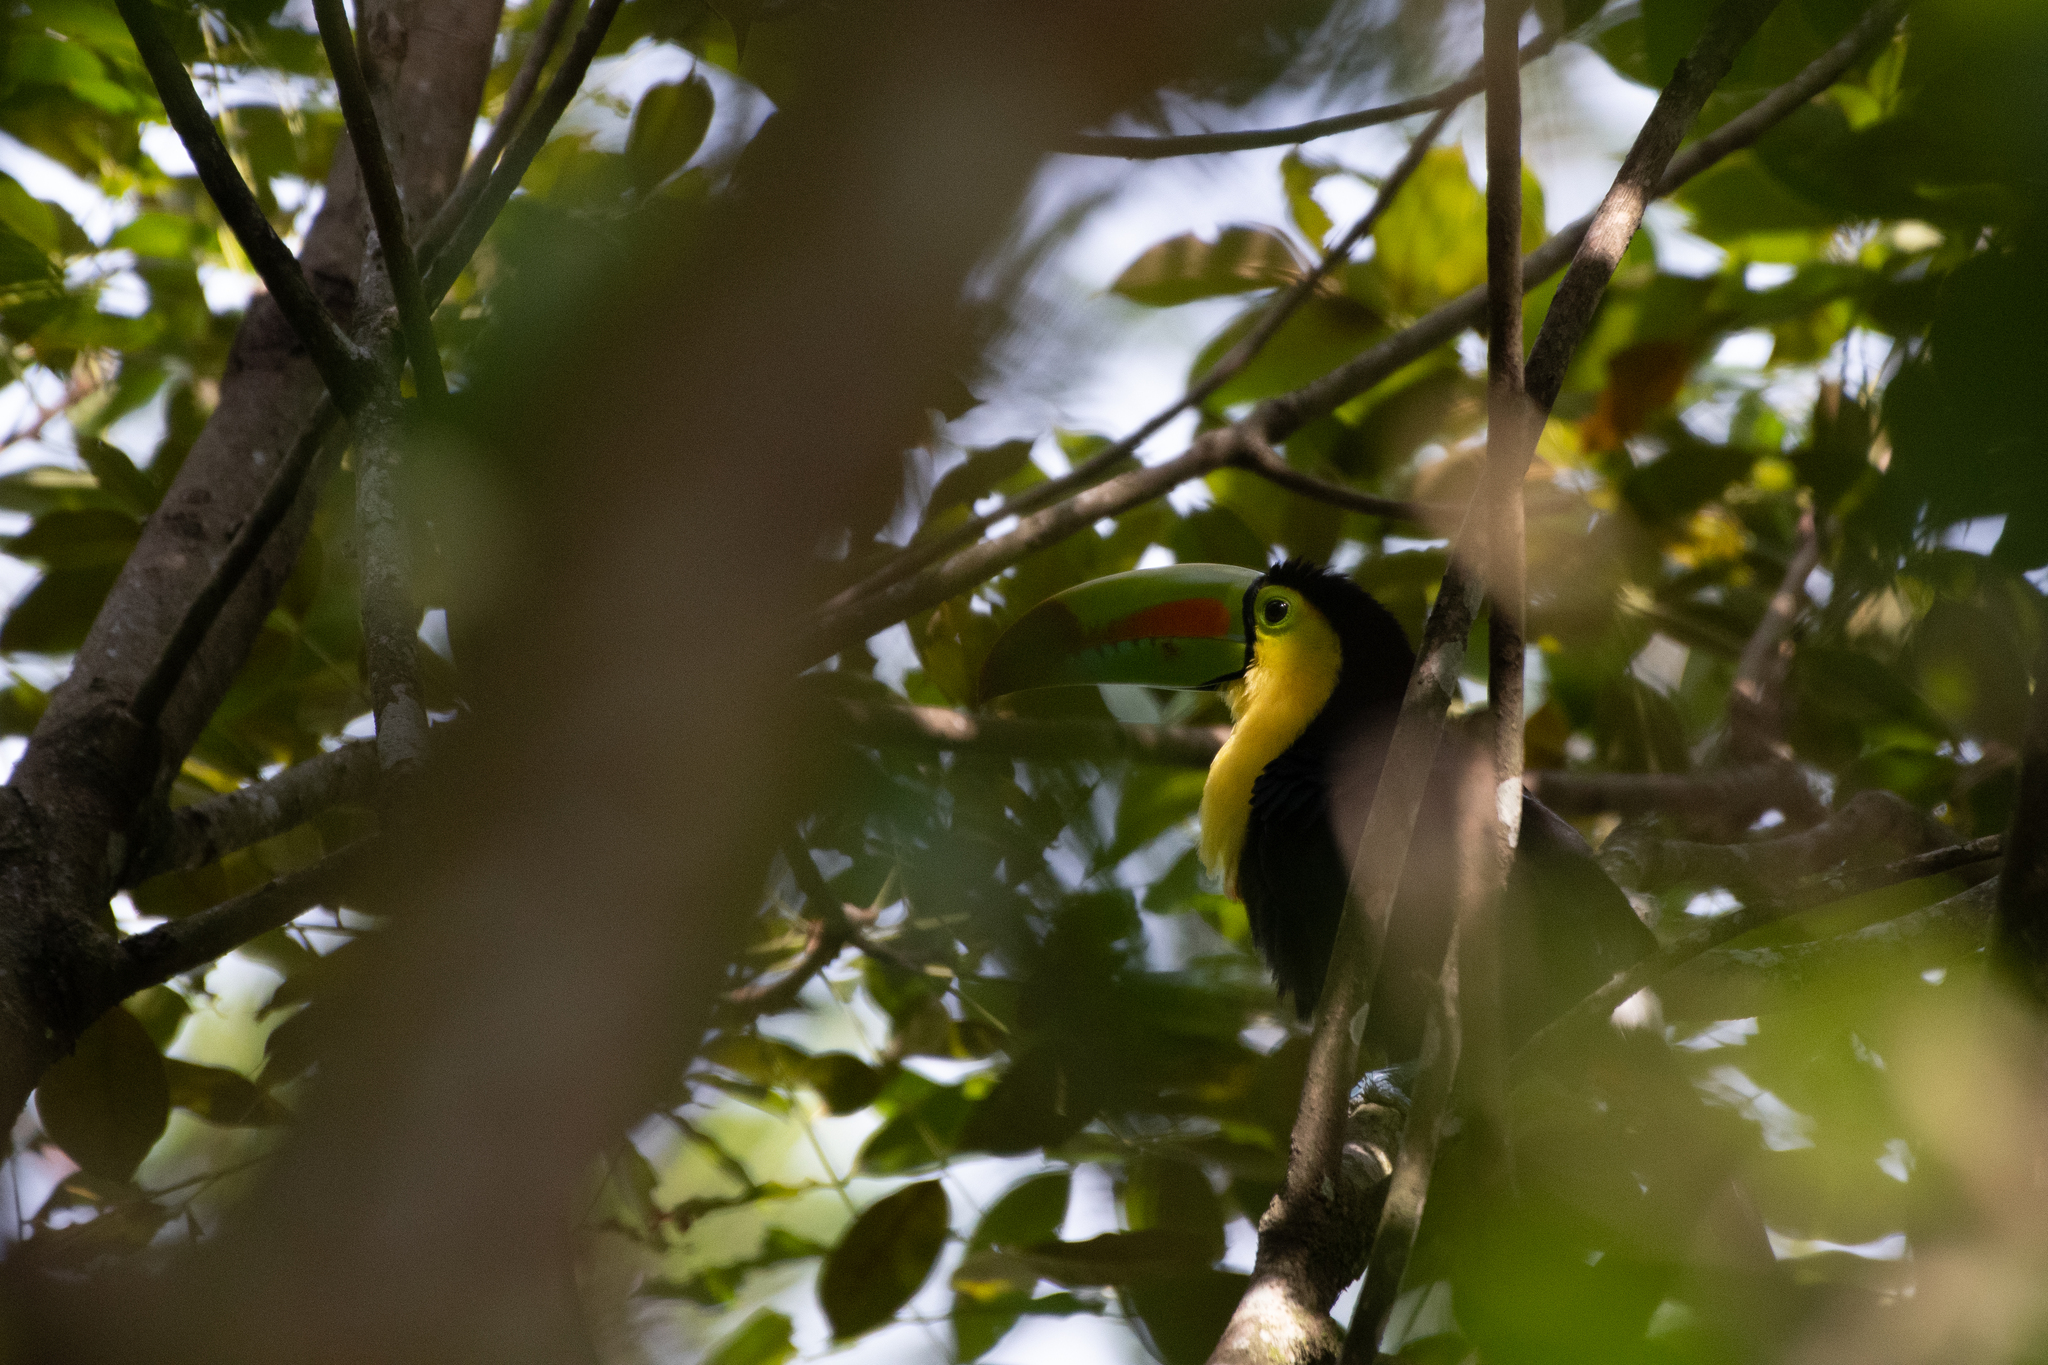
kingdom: Animalia
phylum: Chordata
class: Aves
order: Piciformes
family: Ramphastidae
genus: Ramphastos
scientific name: Ramphastos sulfuratus
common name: Keel-billed toucan
